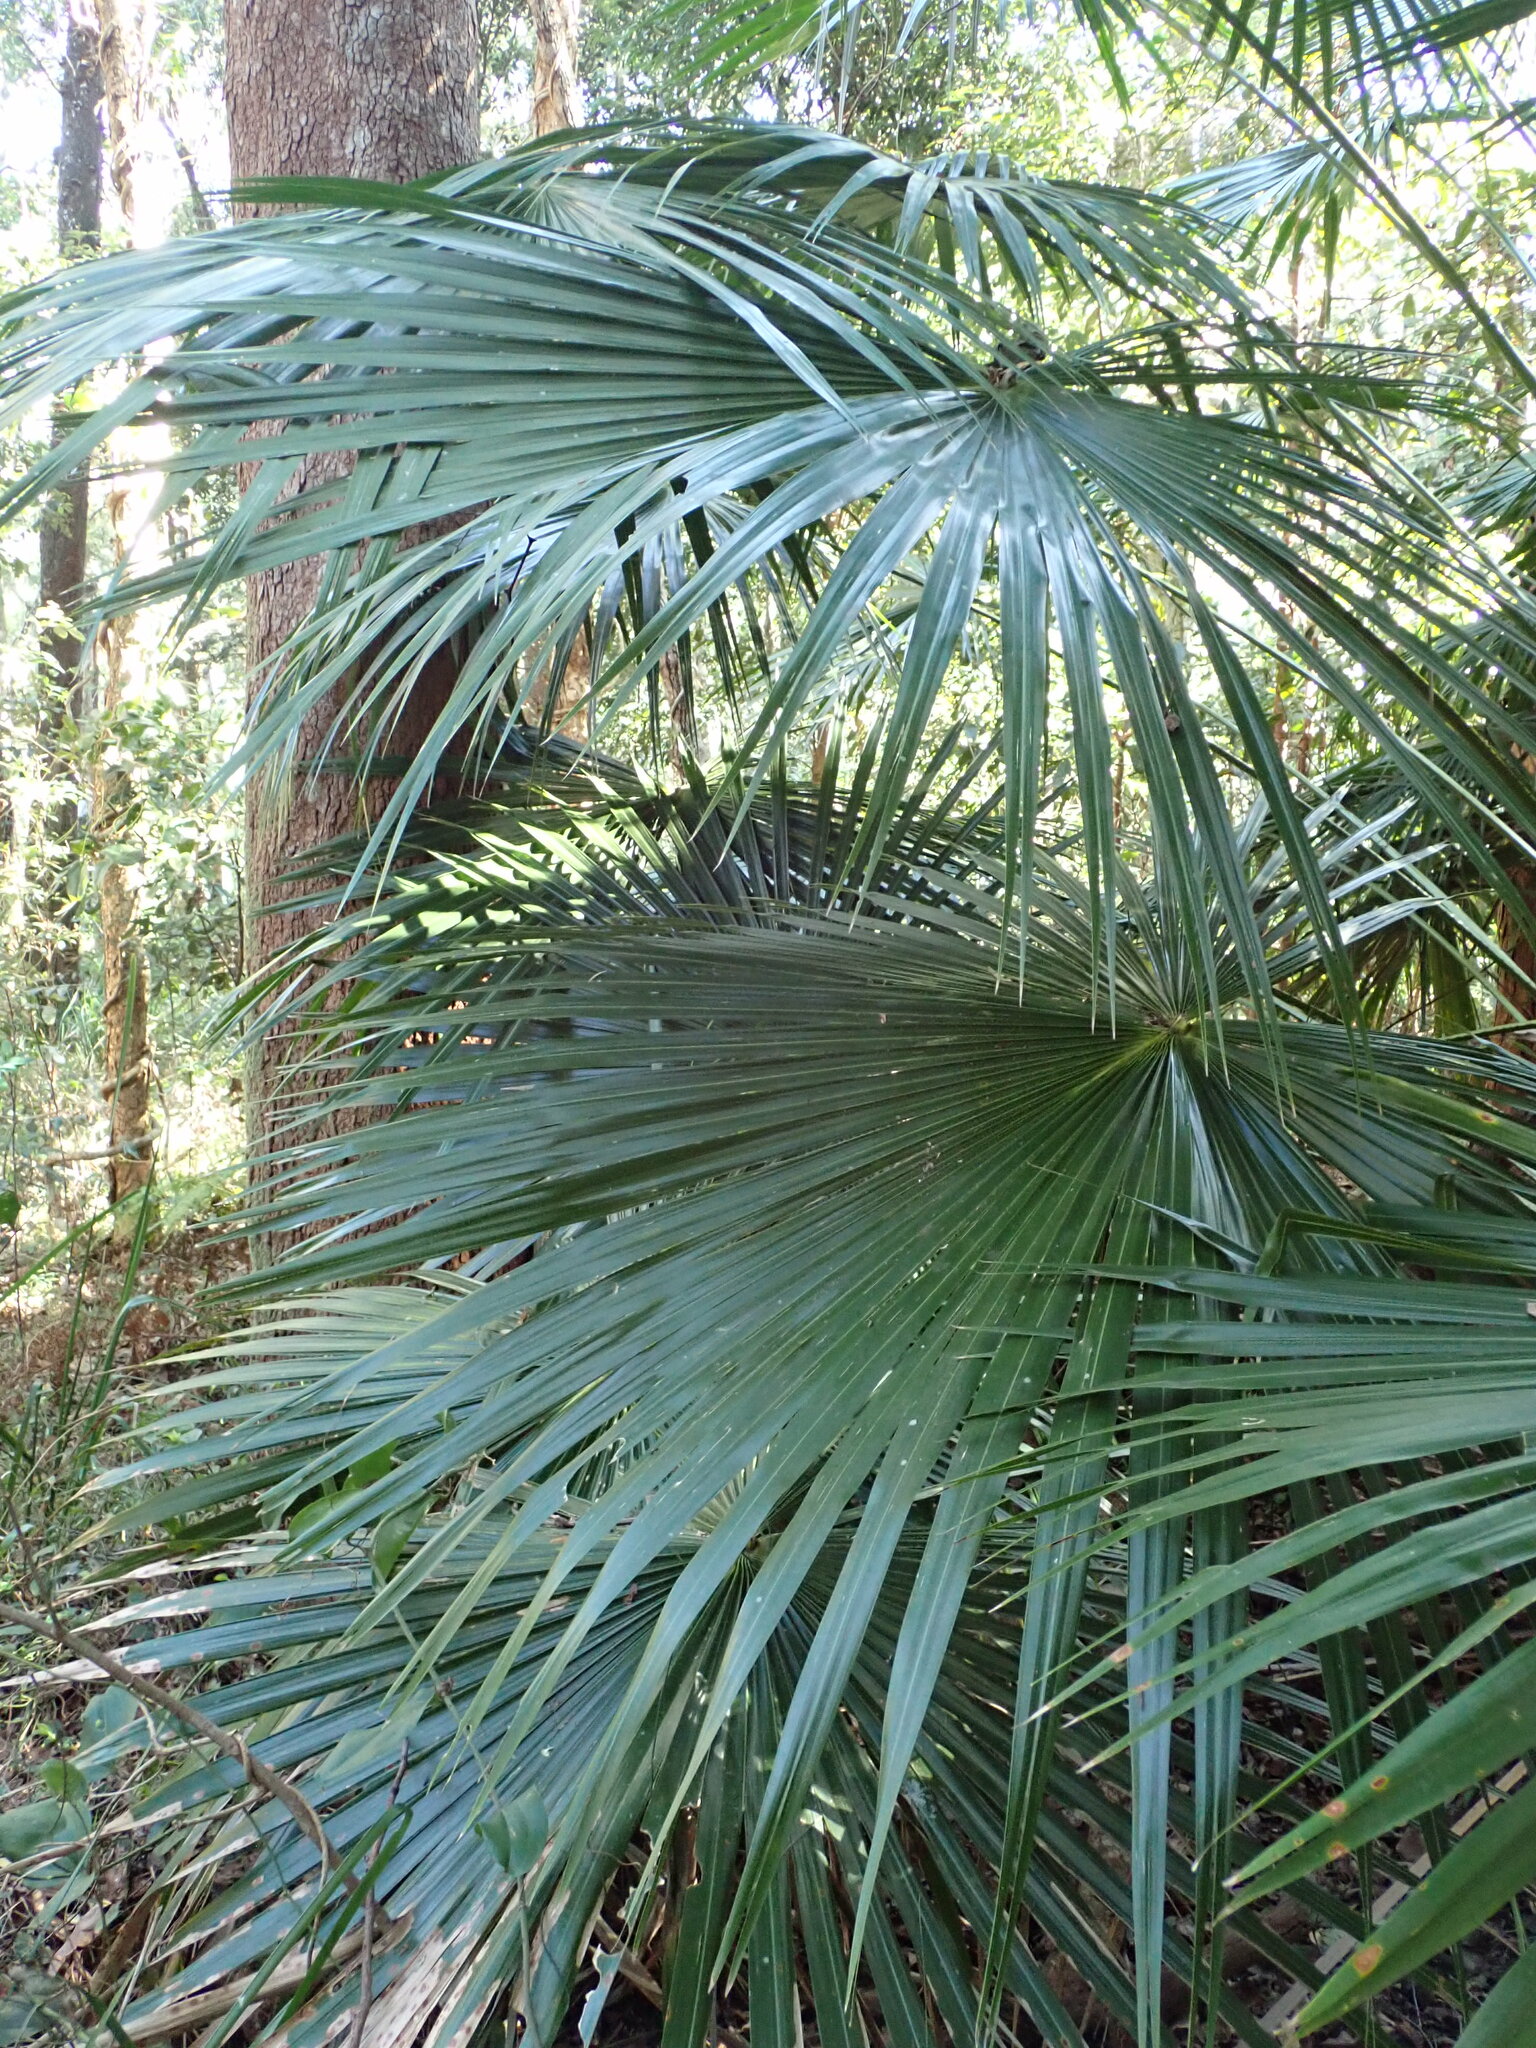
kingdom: Plantae
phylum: Tracheophyta
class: Liliopsida
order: Arecales
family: Arecaceae
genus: Livistona
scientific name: Livistona australis
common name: Cabbage fan palm
